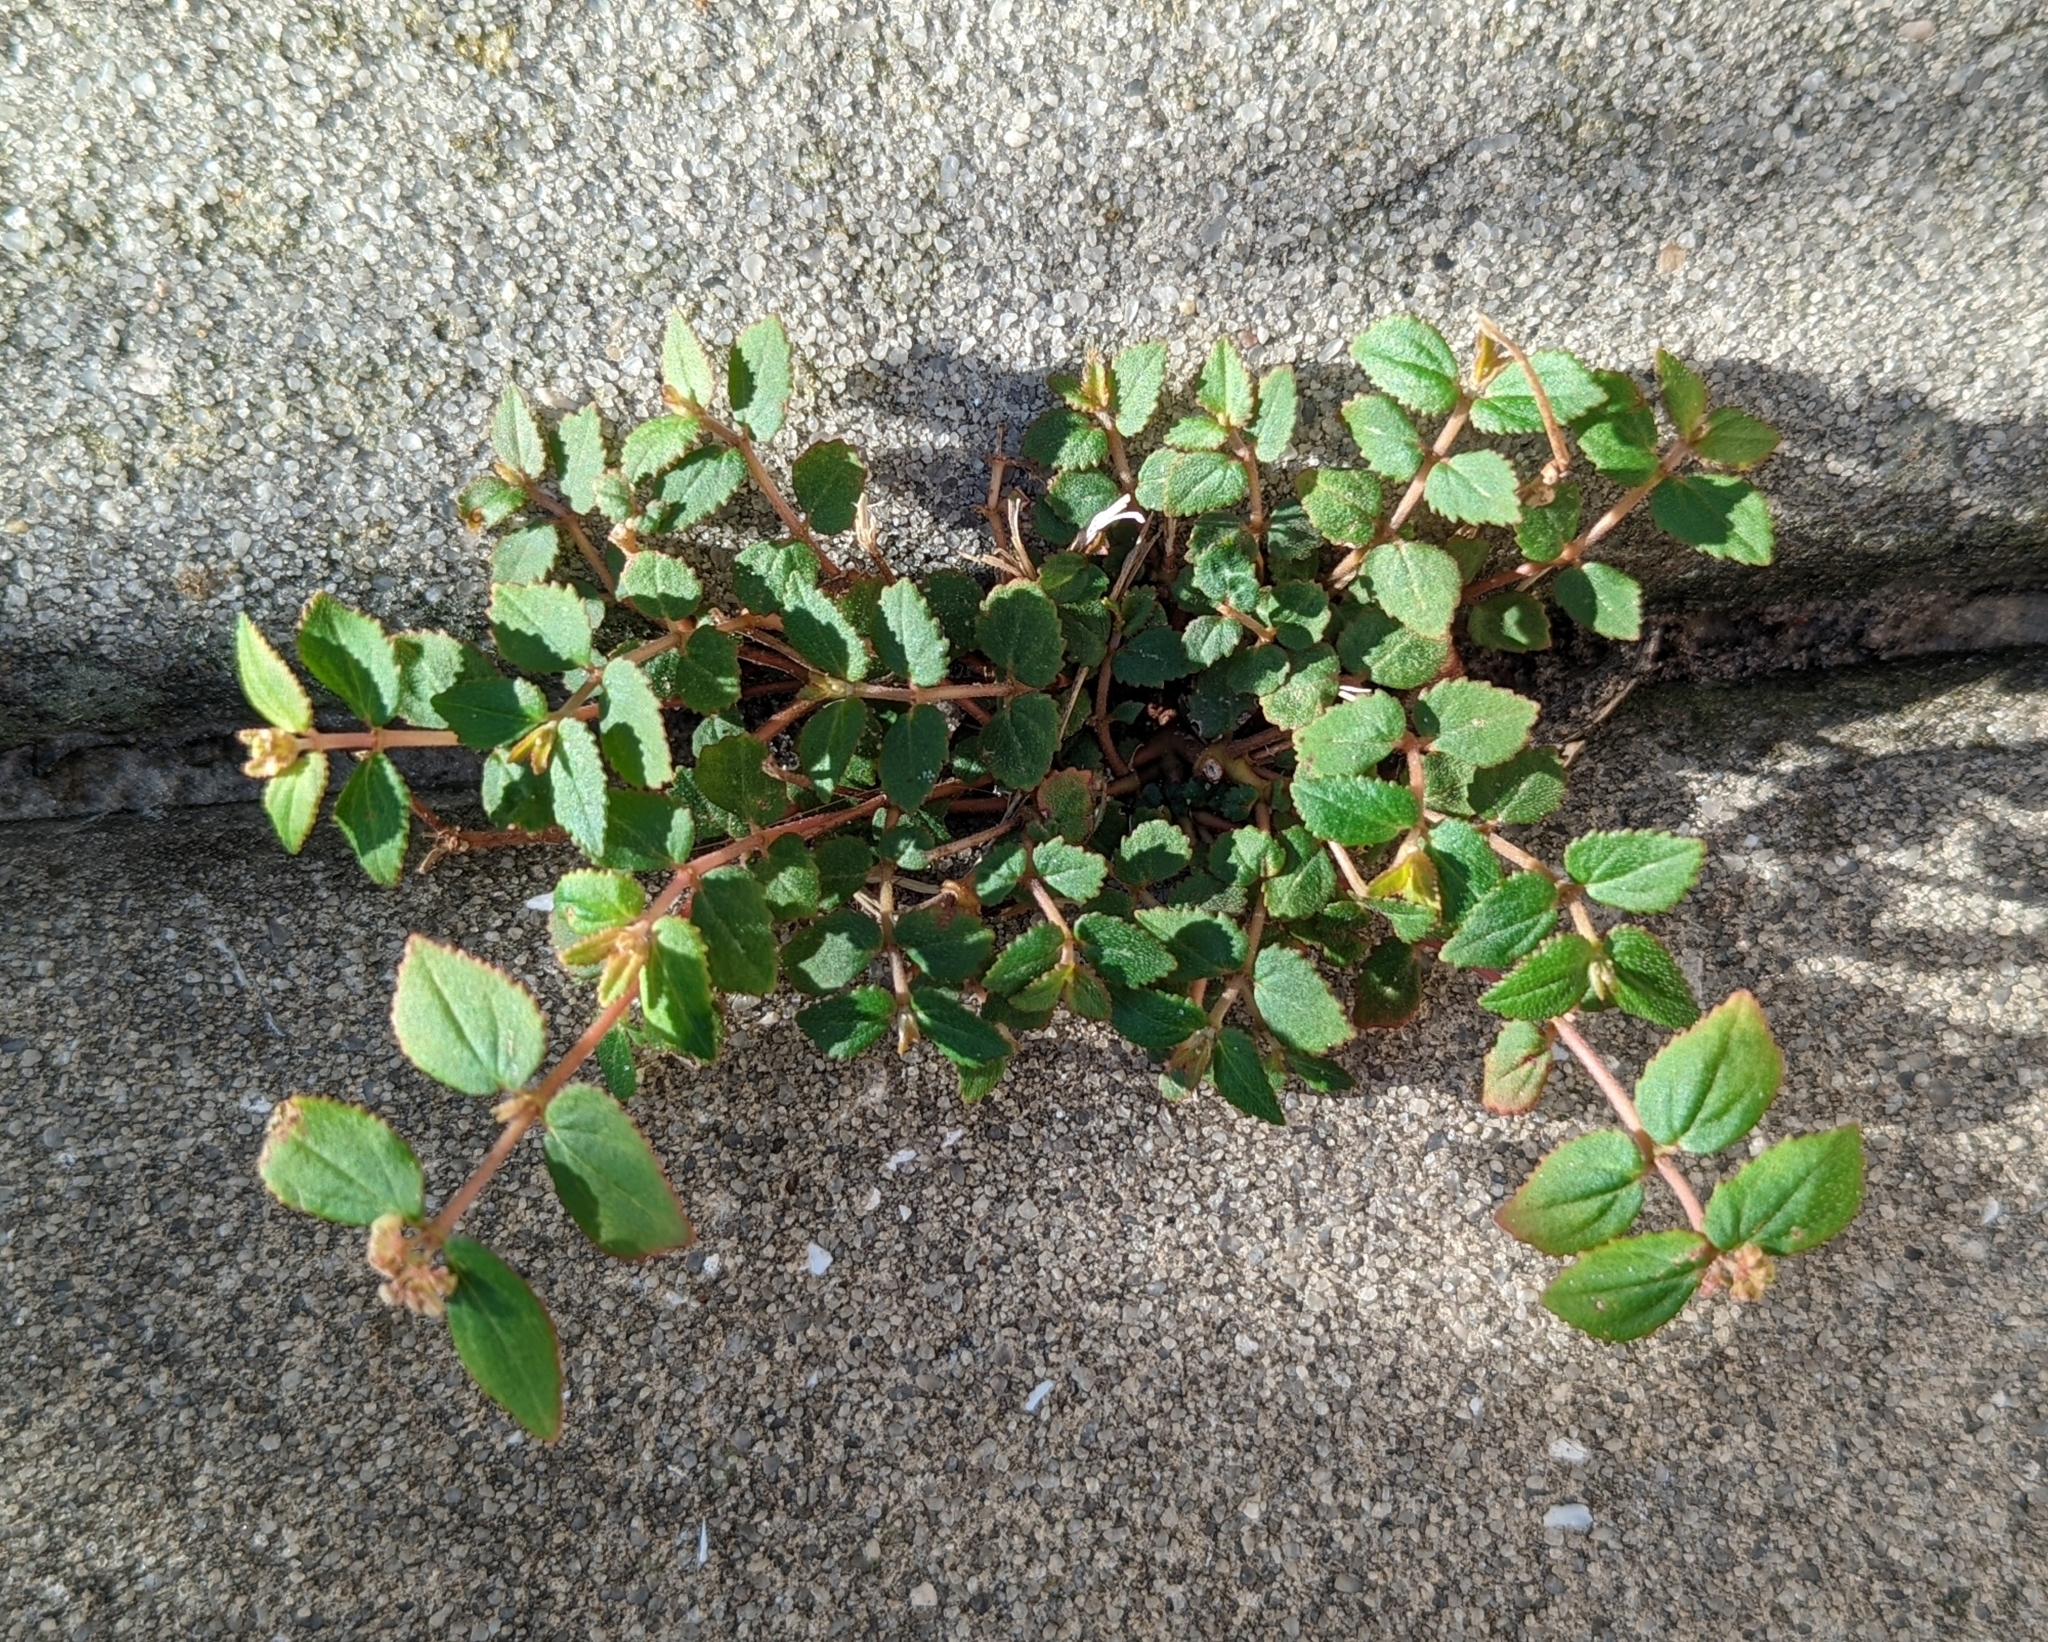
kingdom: Plantae
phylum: Tracheophyta
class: Magnoliopsida
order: Malpighiales
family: Euphorbiaceae
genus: Euphorbia
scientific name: Euphorbia ophthalmica
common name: Florida hammock sandmat
